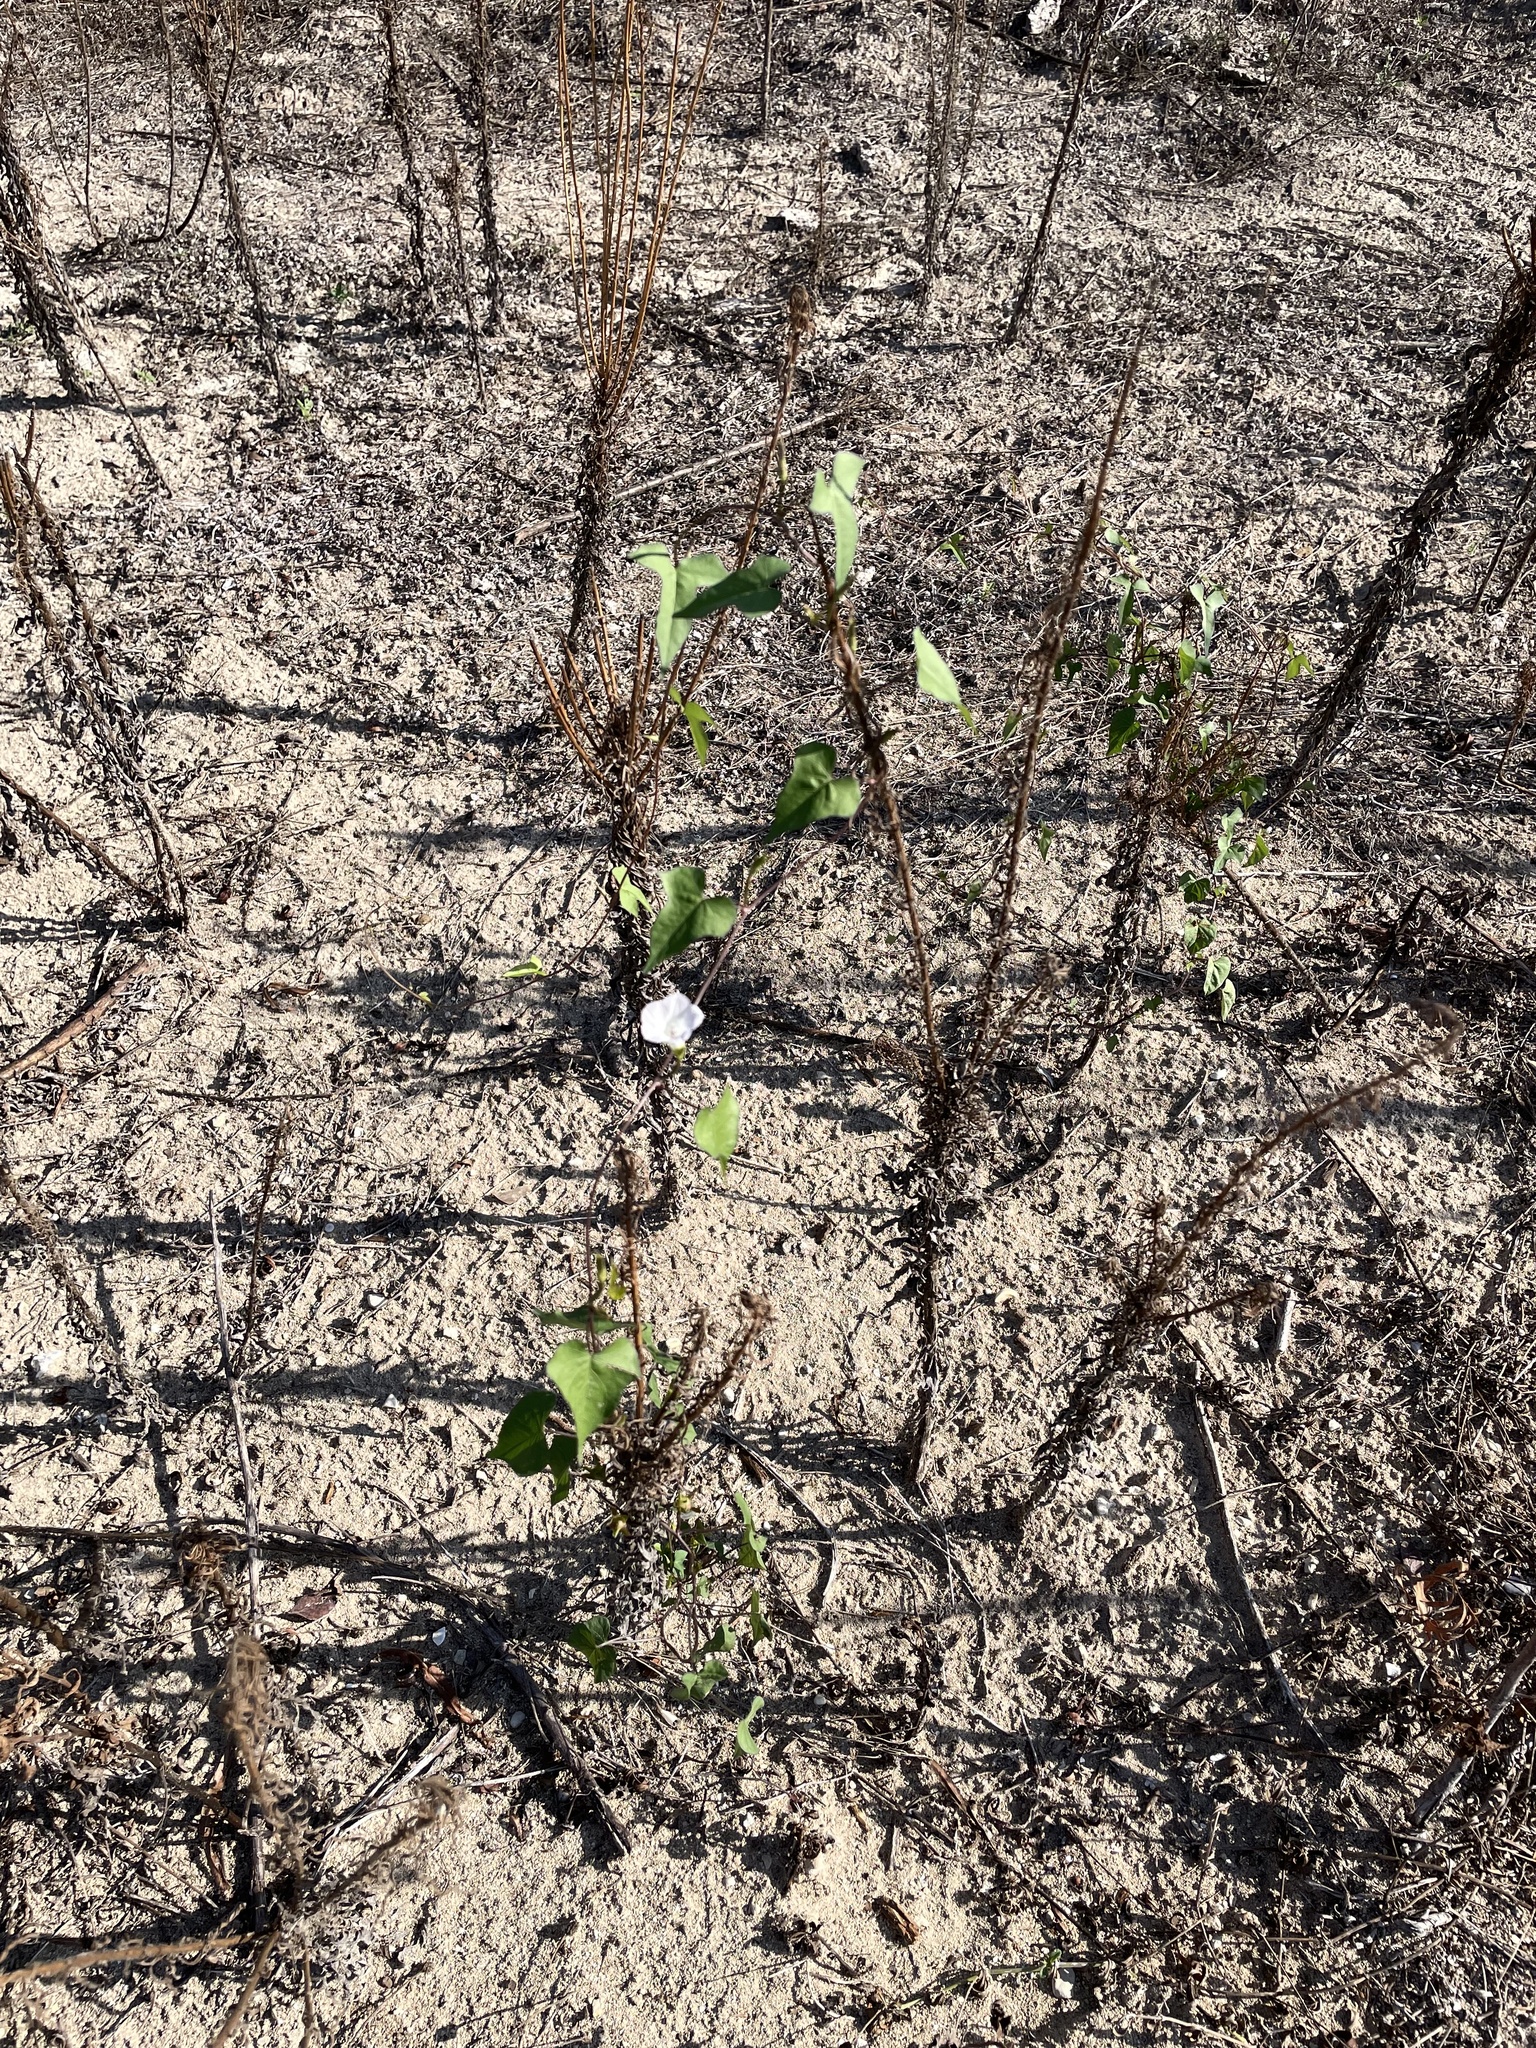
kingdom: Plantae
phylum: Tracheophyta
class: Magnoliopsida
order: Solanales
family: Convolvulaceae
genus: Ipomoea
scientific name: Ipomoea lacunosa
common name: White morning-glory
